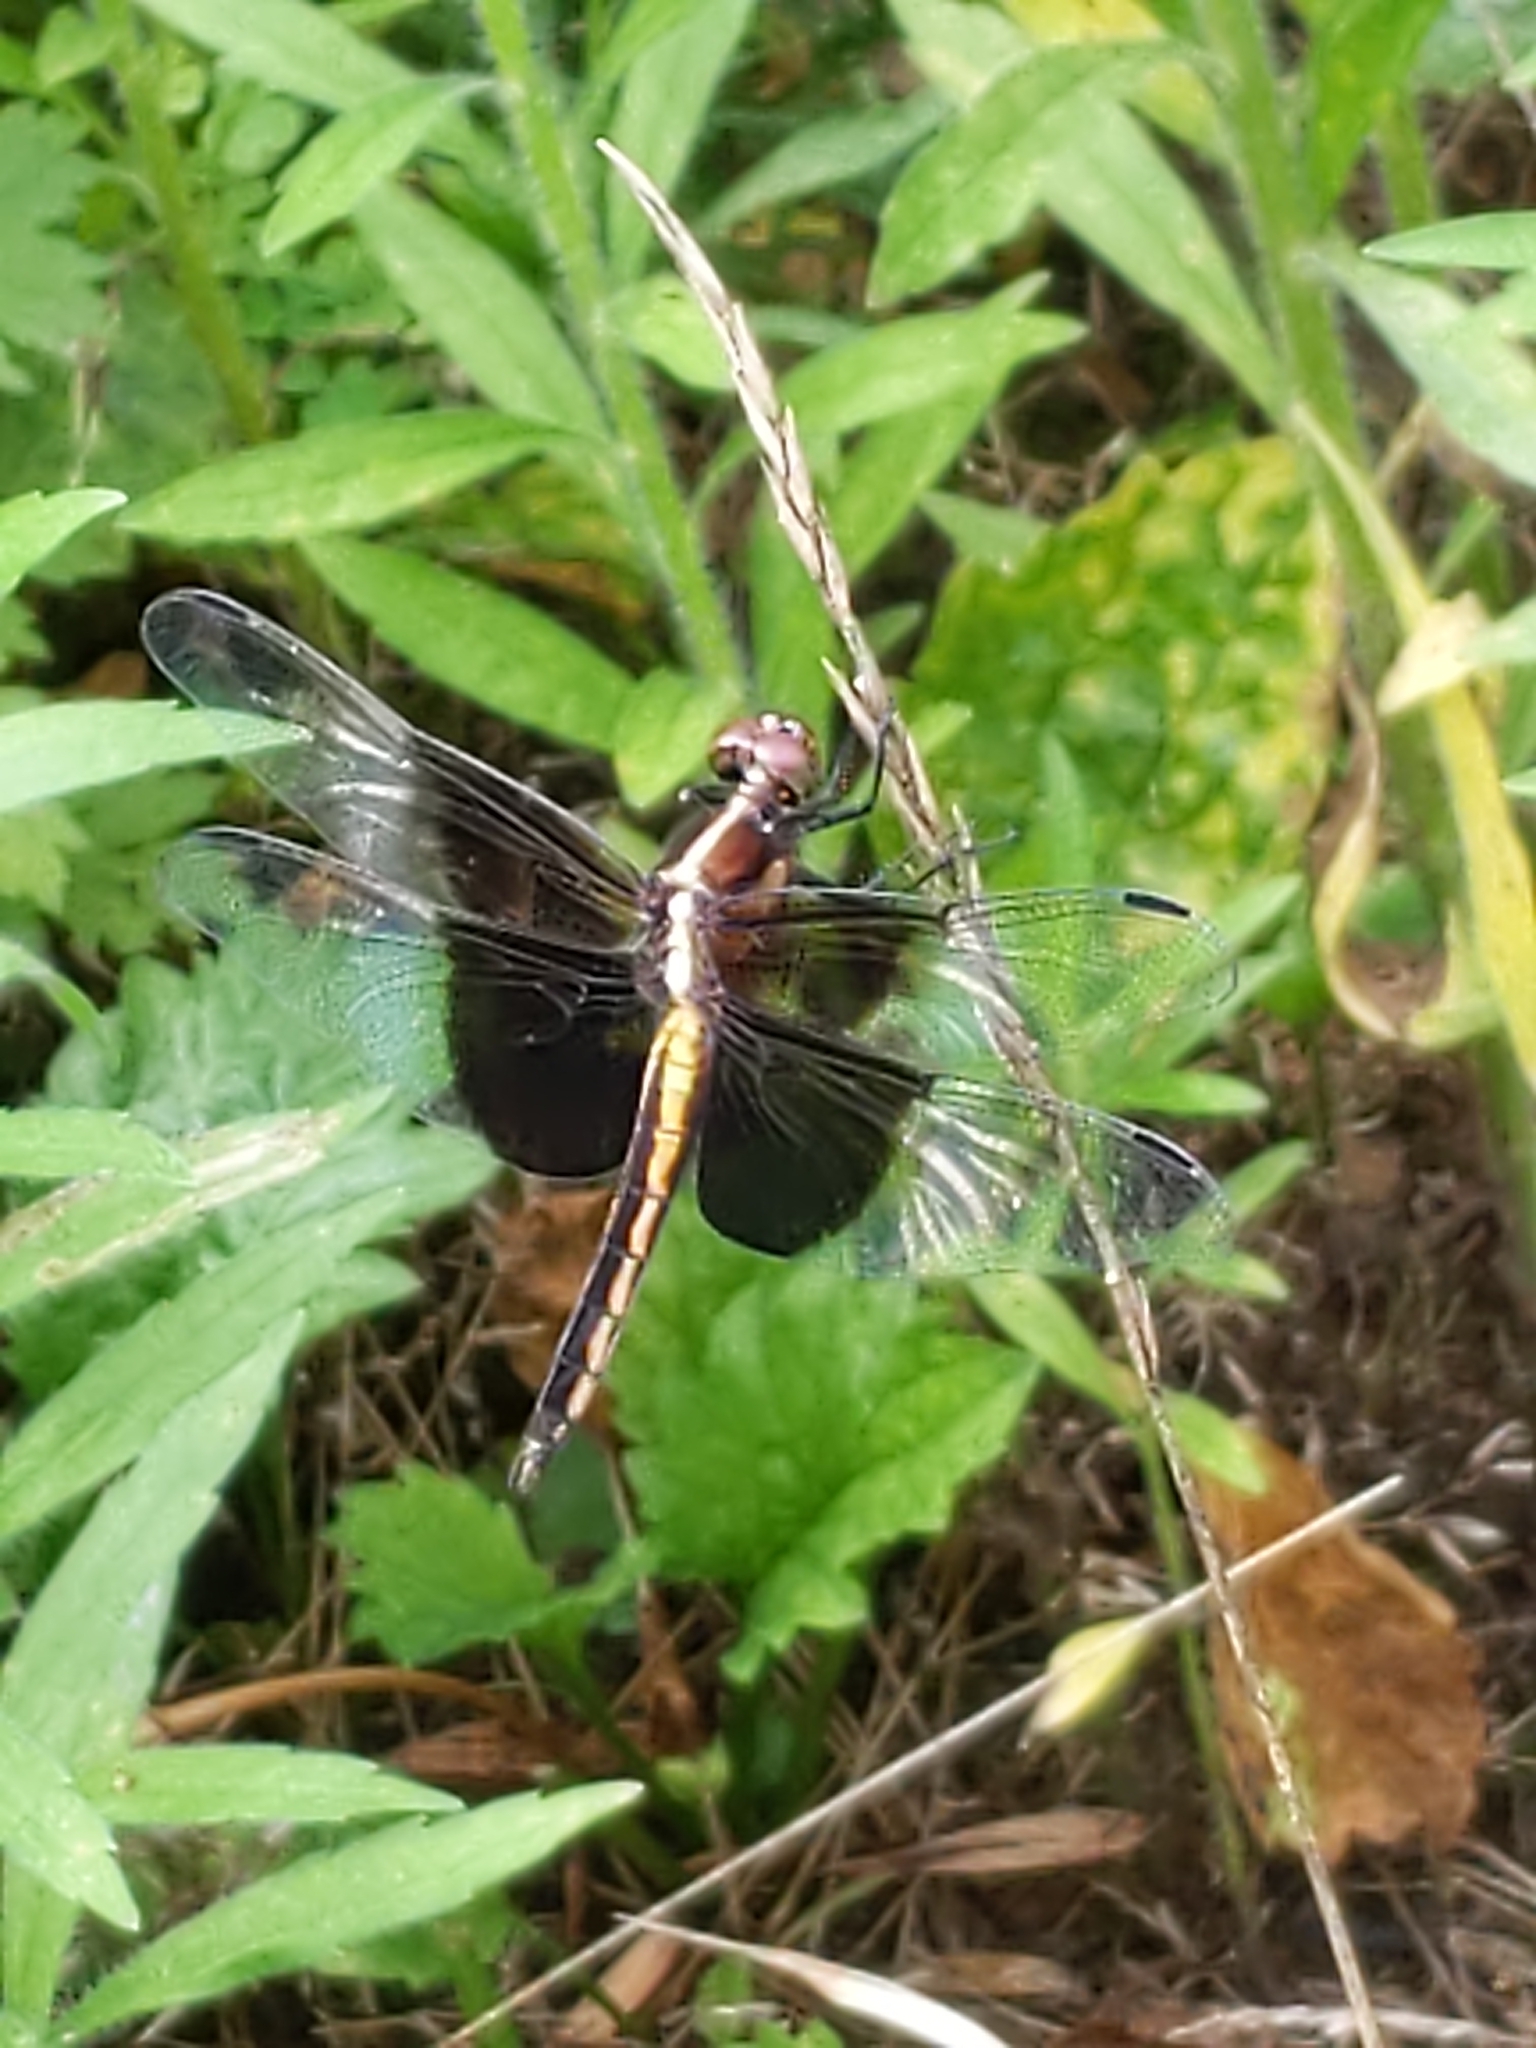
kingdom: Animalia
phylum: Arthropoda
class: Insecta
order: Odonata
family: Libellulidae
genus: Libellula
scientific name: Libellula luctuosa
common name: Widow skimmer
